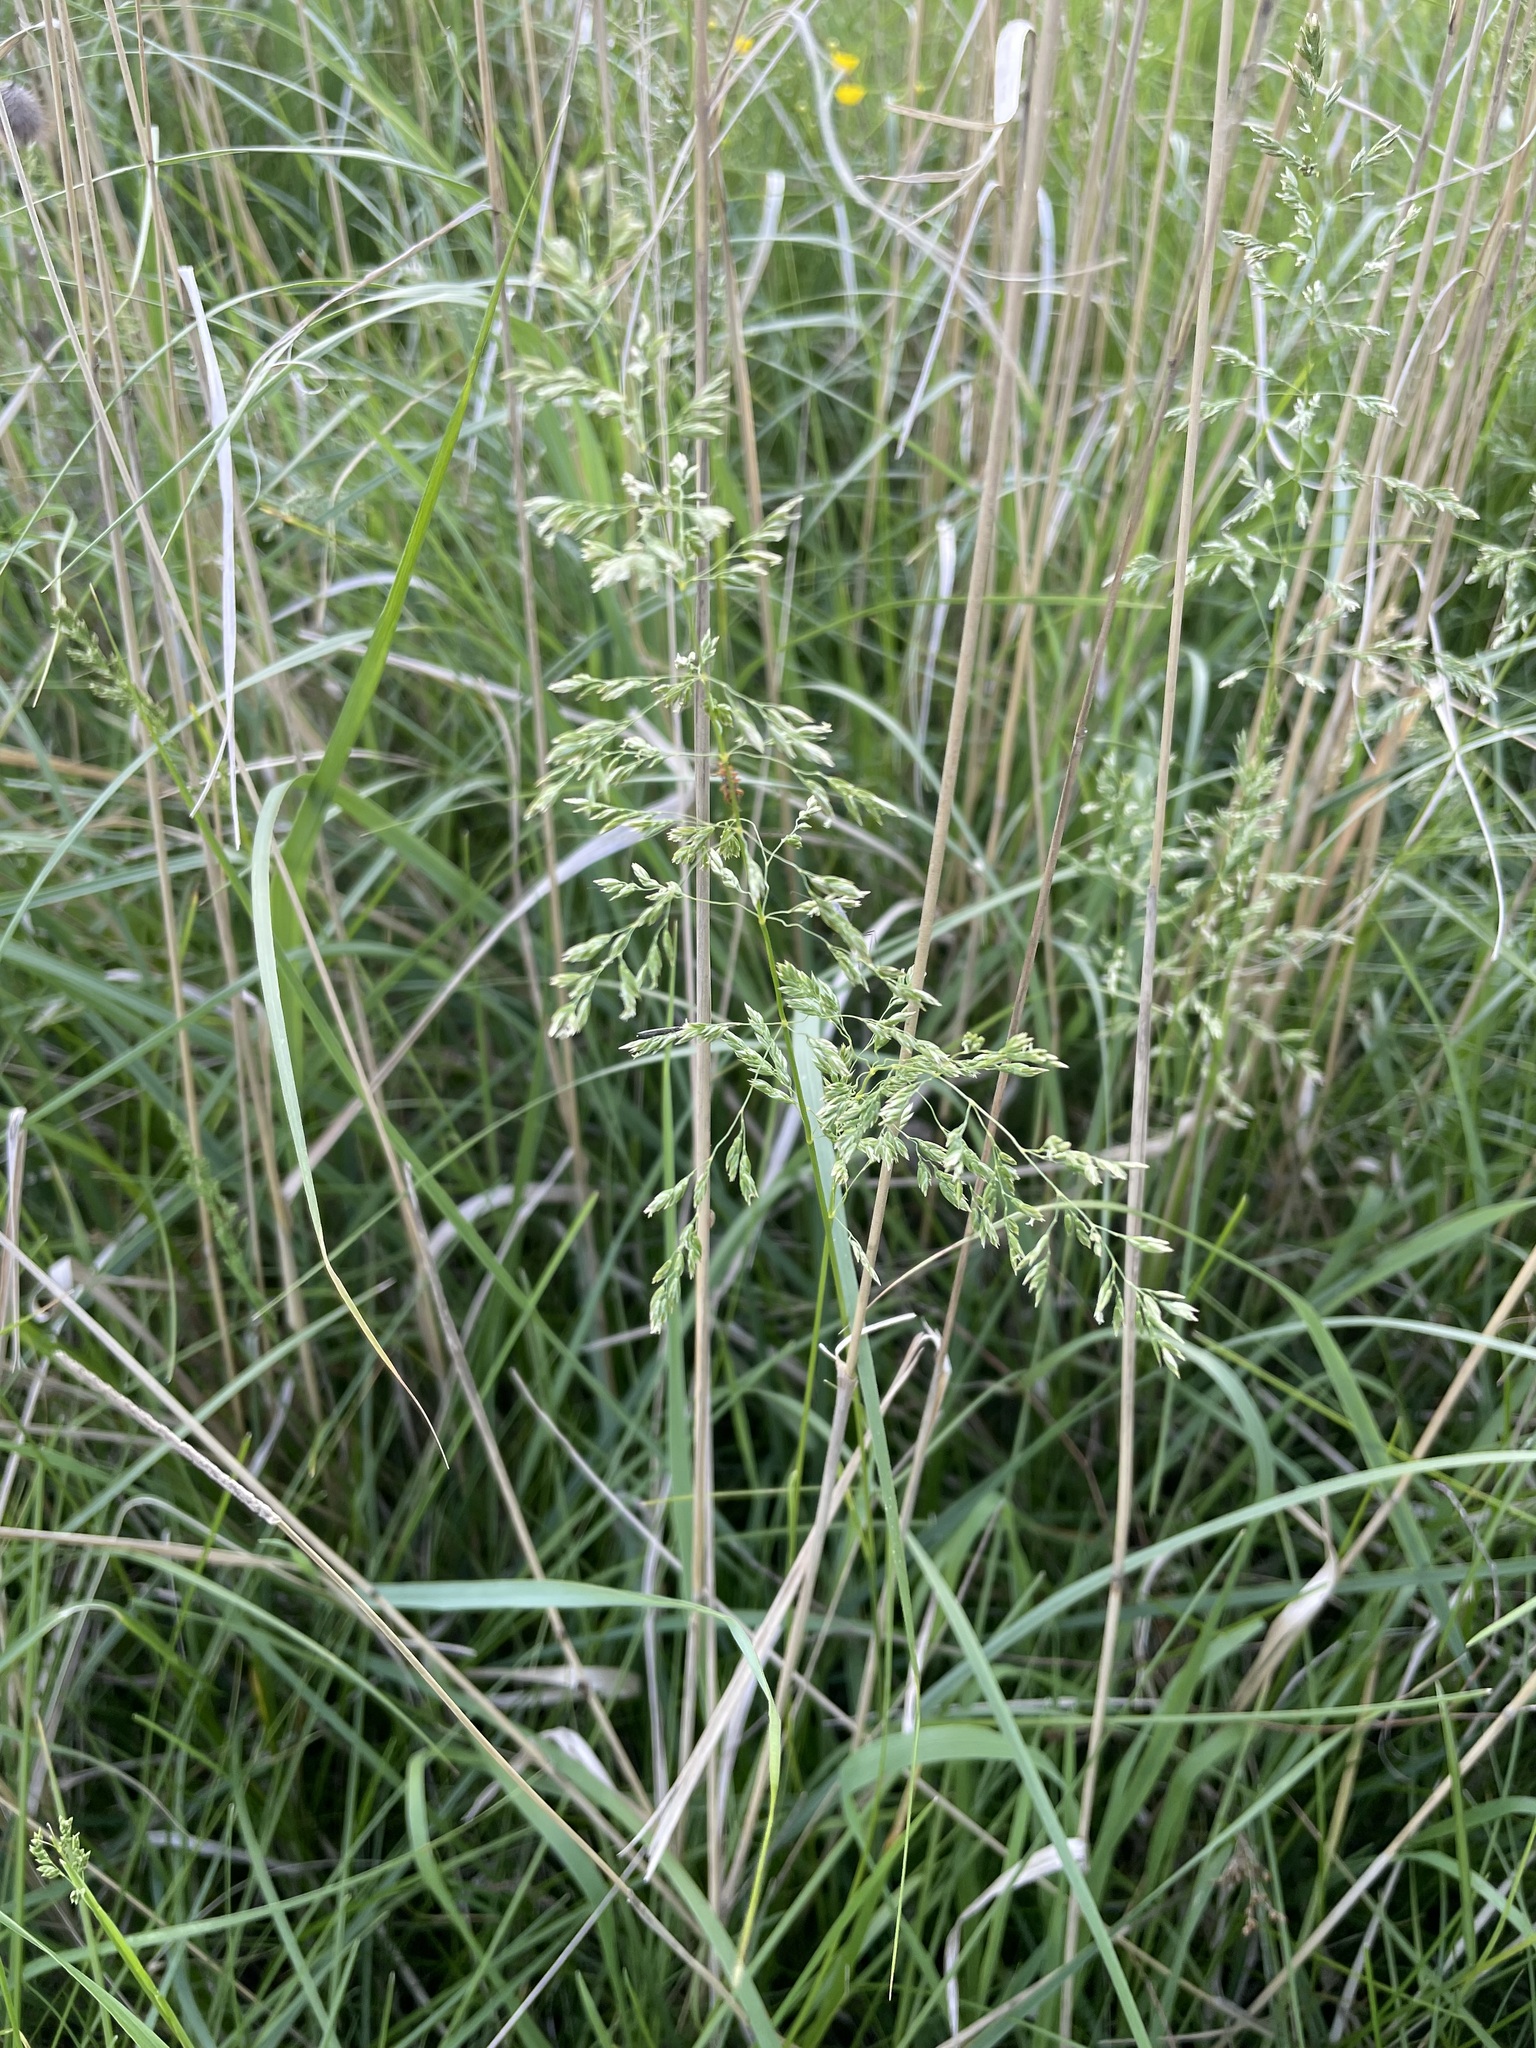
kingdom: Plantae
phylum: Tracheophyta
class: Liliopsida
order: Poales
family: Poaceae
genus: Poa
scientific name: Poa pratensis
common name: Kentucky bluegrass
